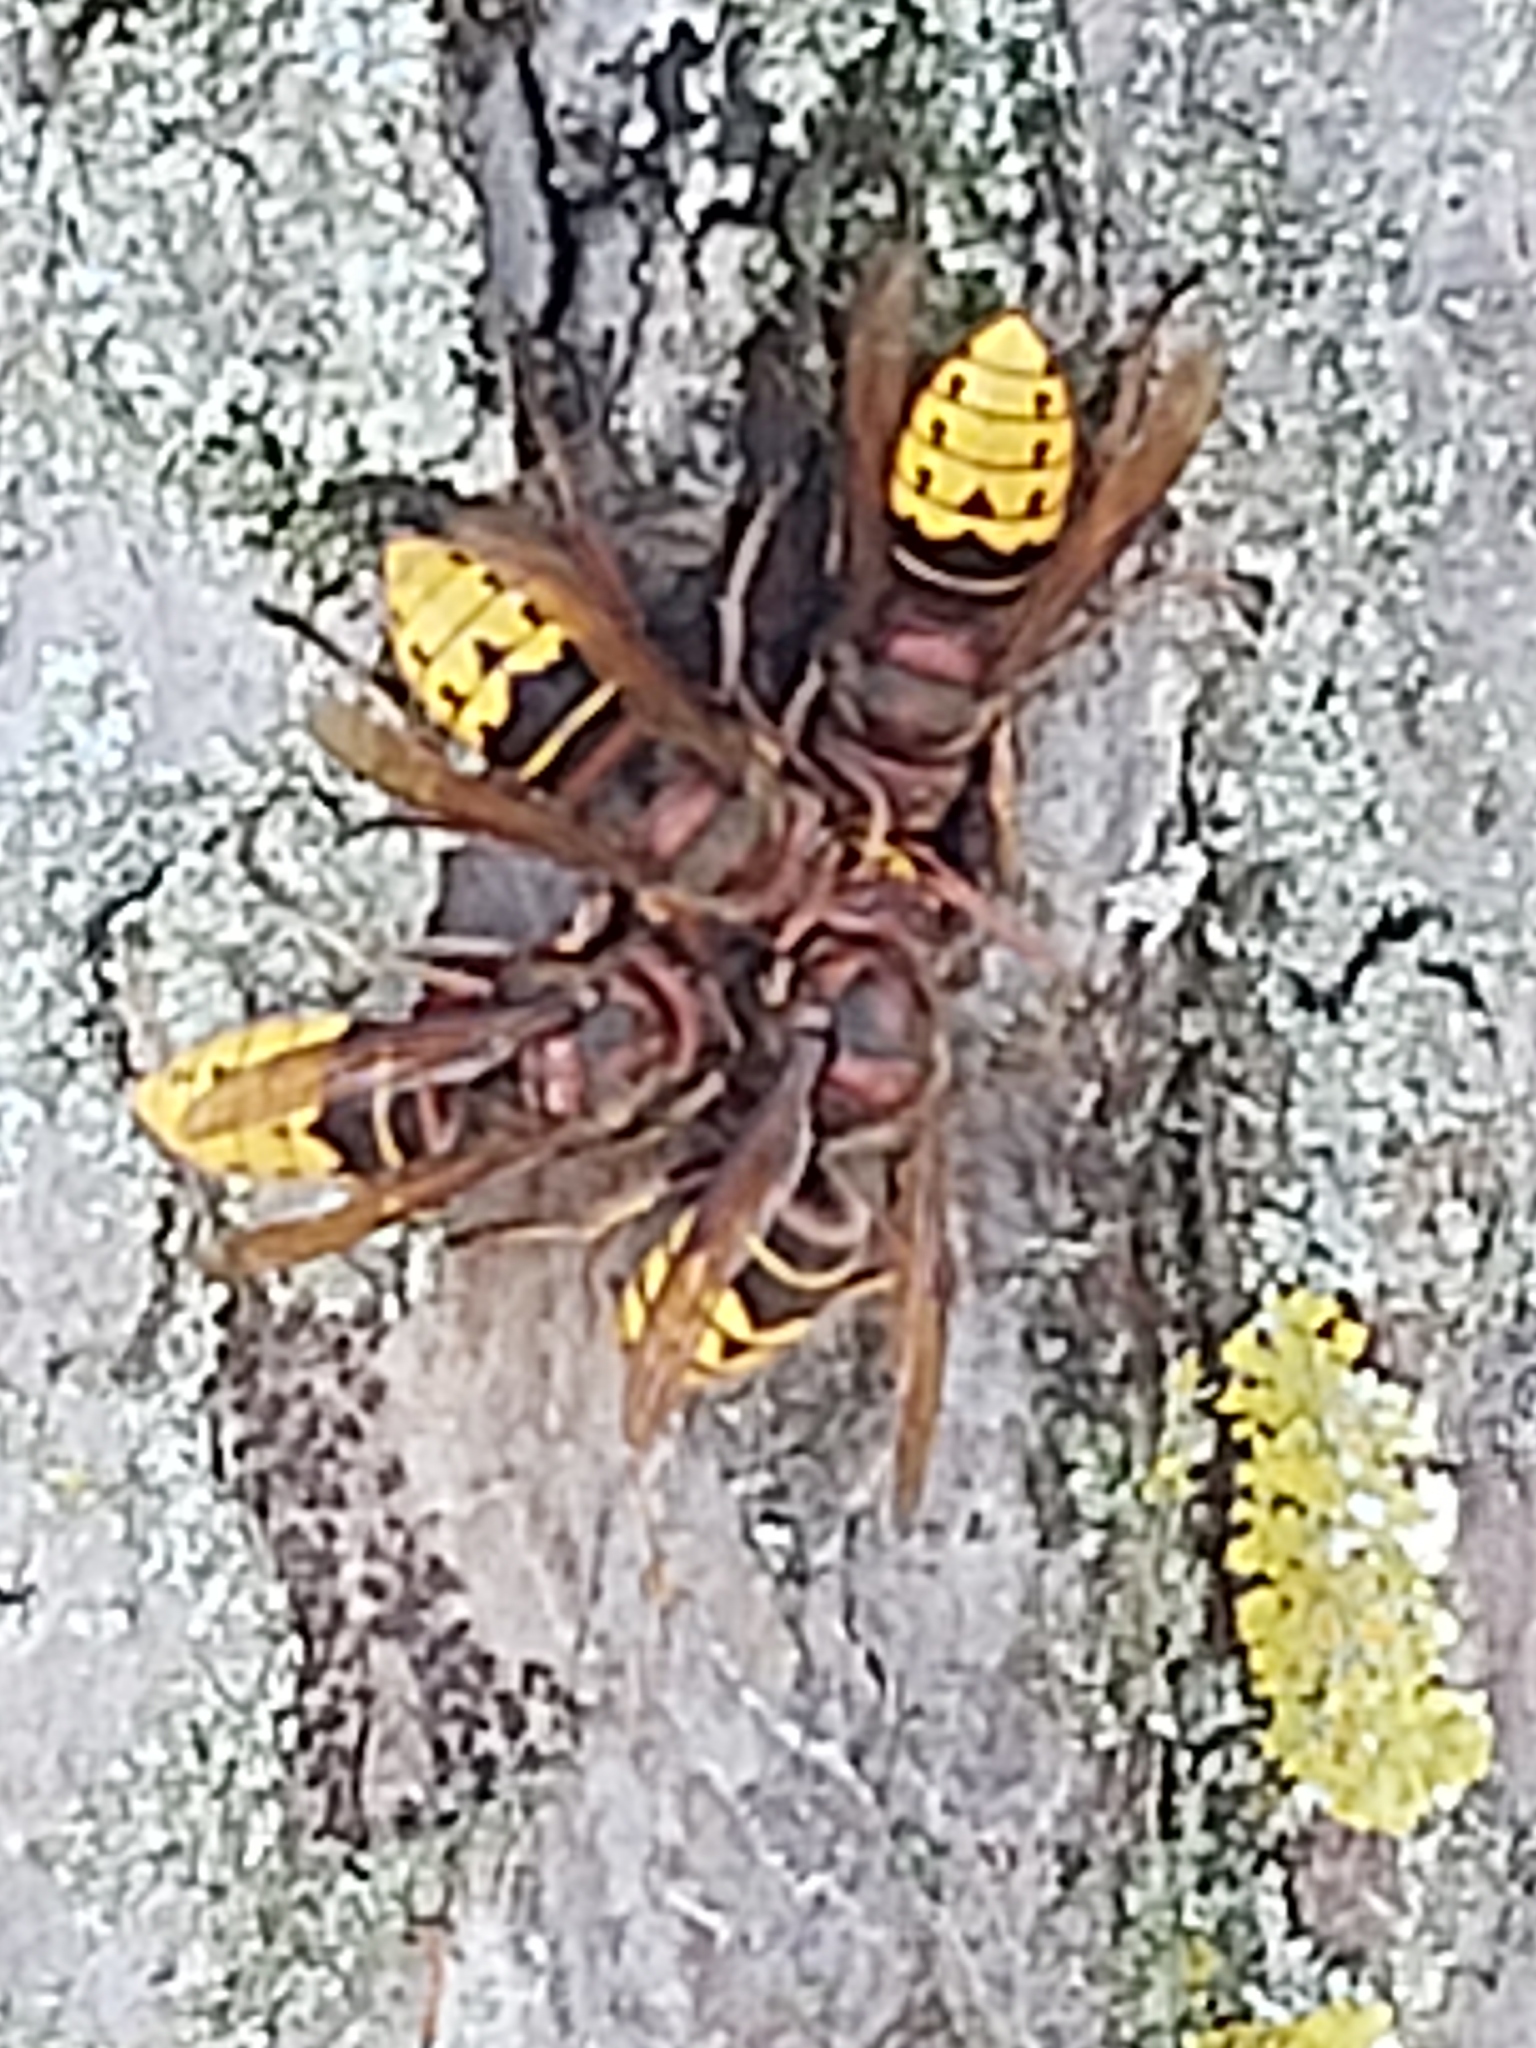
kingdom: Animalia
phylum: Arthropoda
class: Insecta
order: Hymenoptera
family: Vespidae
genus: Vespa
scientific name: Vespa crabro
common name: Hornet
